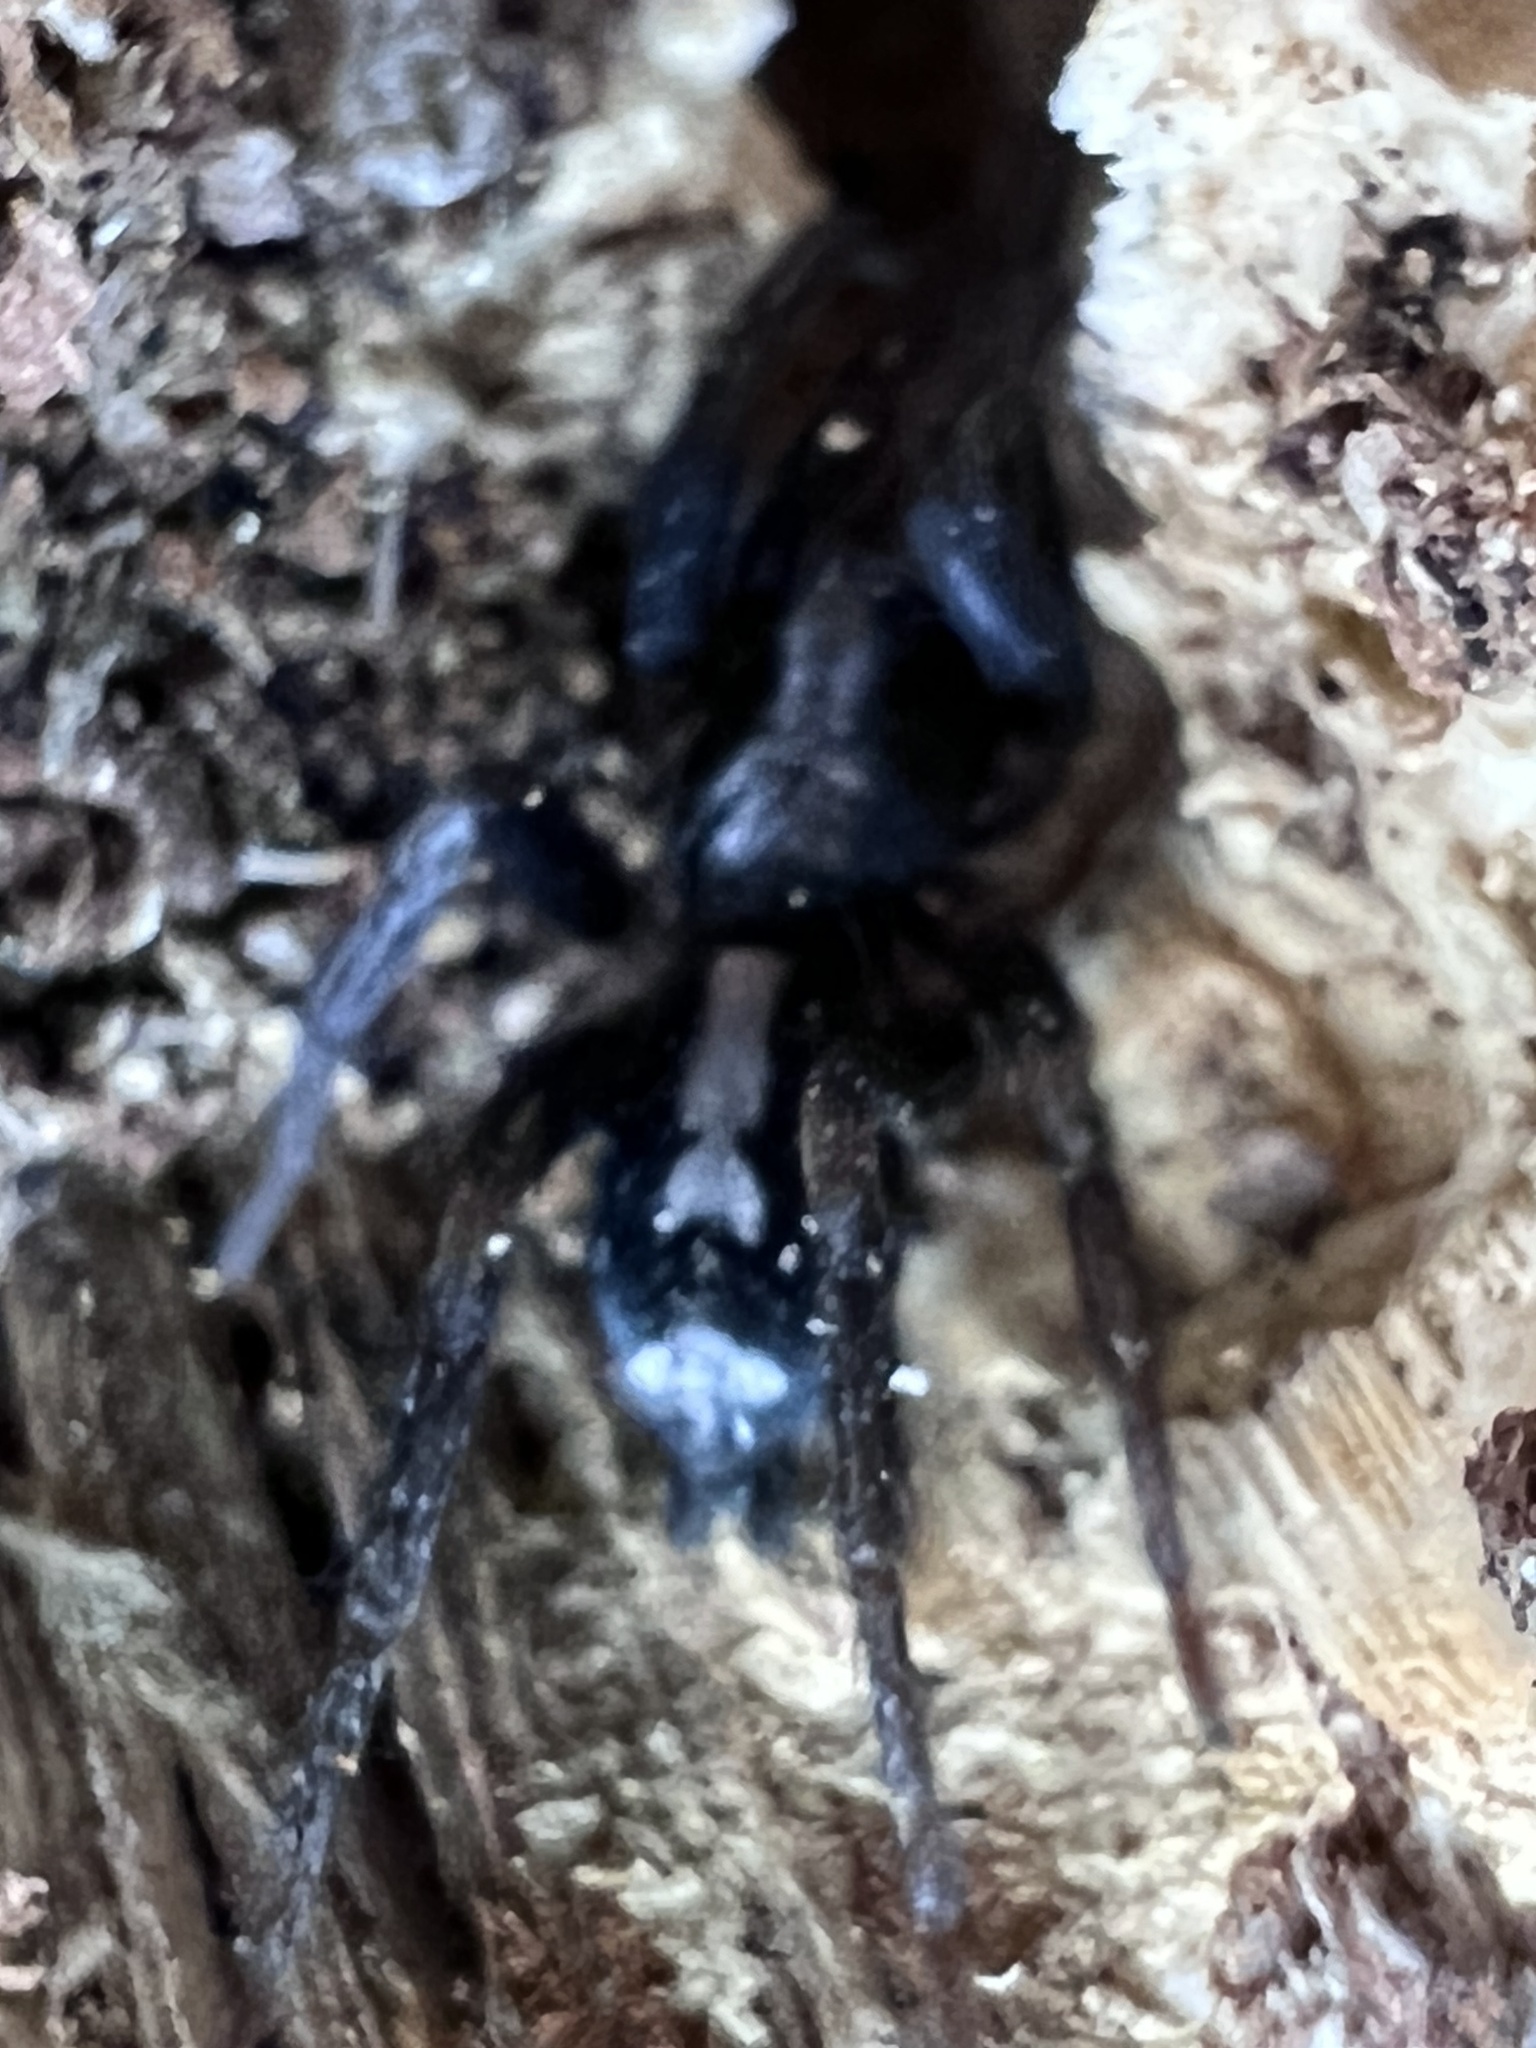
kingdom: Animalia
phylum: Arthropoda
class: Arachnida
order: Araneae
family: Gnaphosidae
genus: Herpyllus
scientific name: Herpyllus ecclesiasticus
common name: Eastern parson spider
